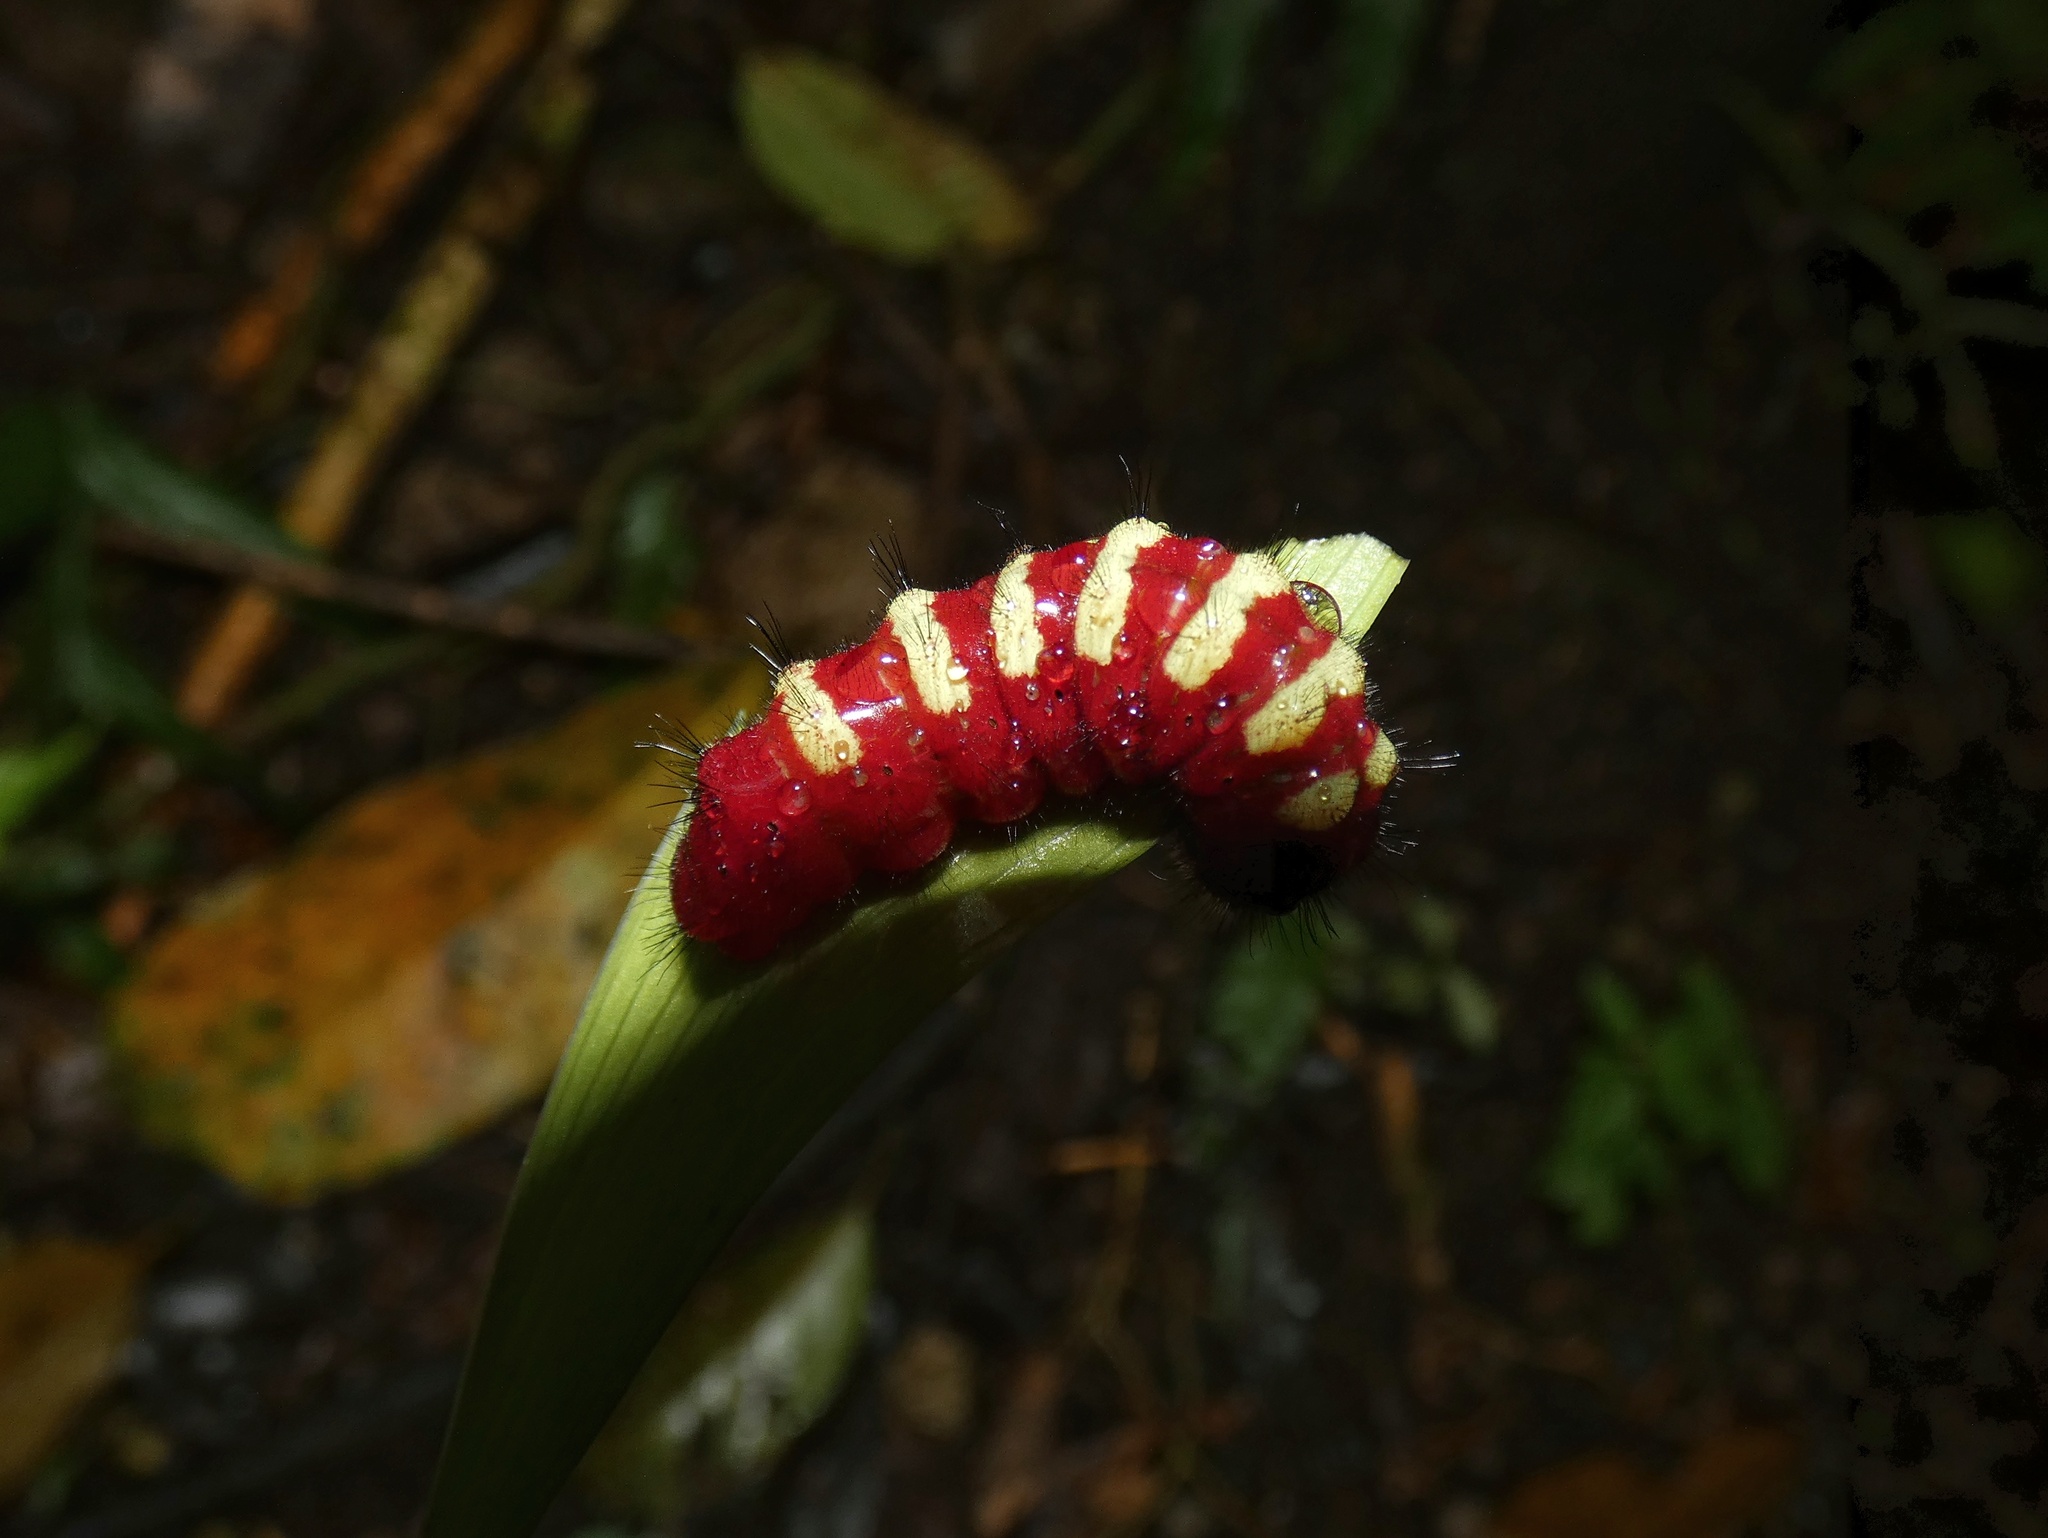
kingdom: Animalia
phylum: Arthropoda
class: Insecta
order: Lepidoptera
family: Lycaenidae
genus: Eumaeus
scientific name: Eumaeus godartii
